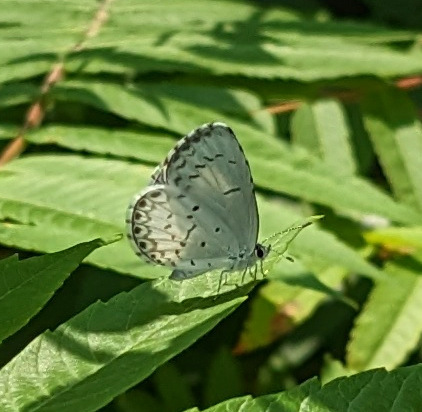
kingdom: Animalia
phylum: Arthropoda
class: Insecta
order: Lepidoptera
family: Lycaenidae
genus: Celastrina
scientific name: Celastrina lucia
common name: Lucia azure
